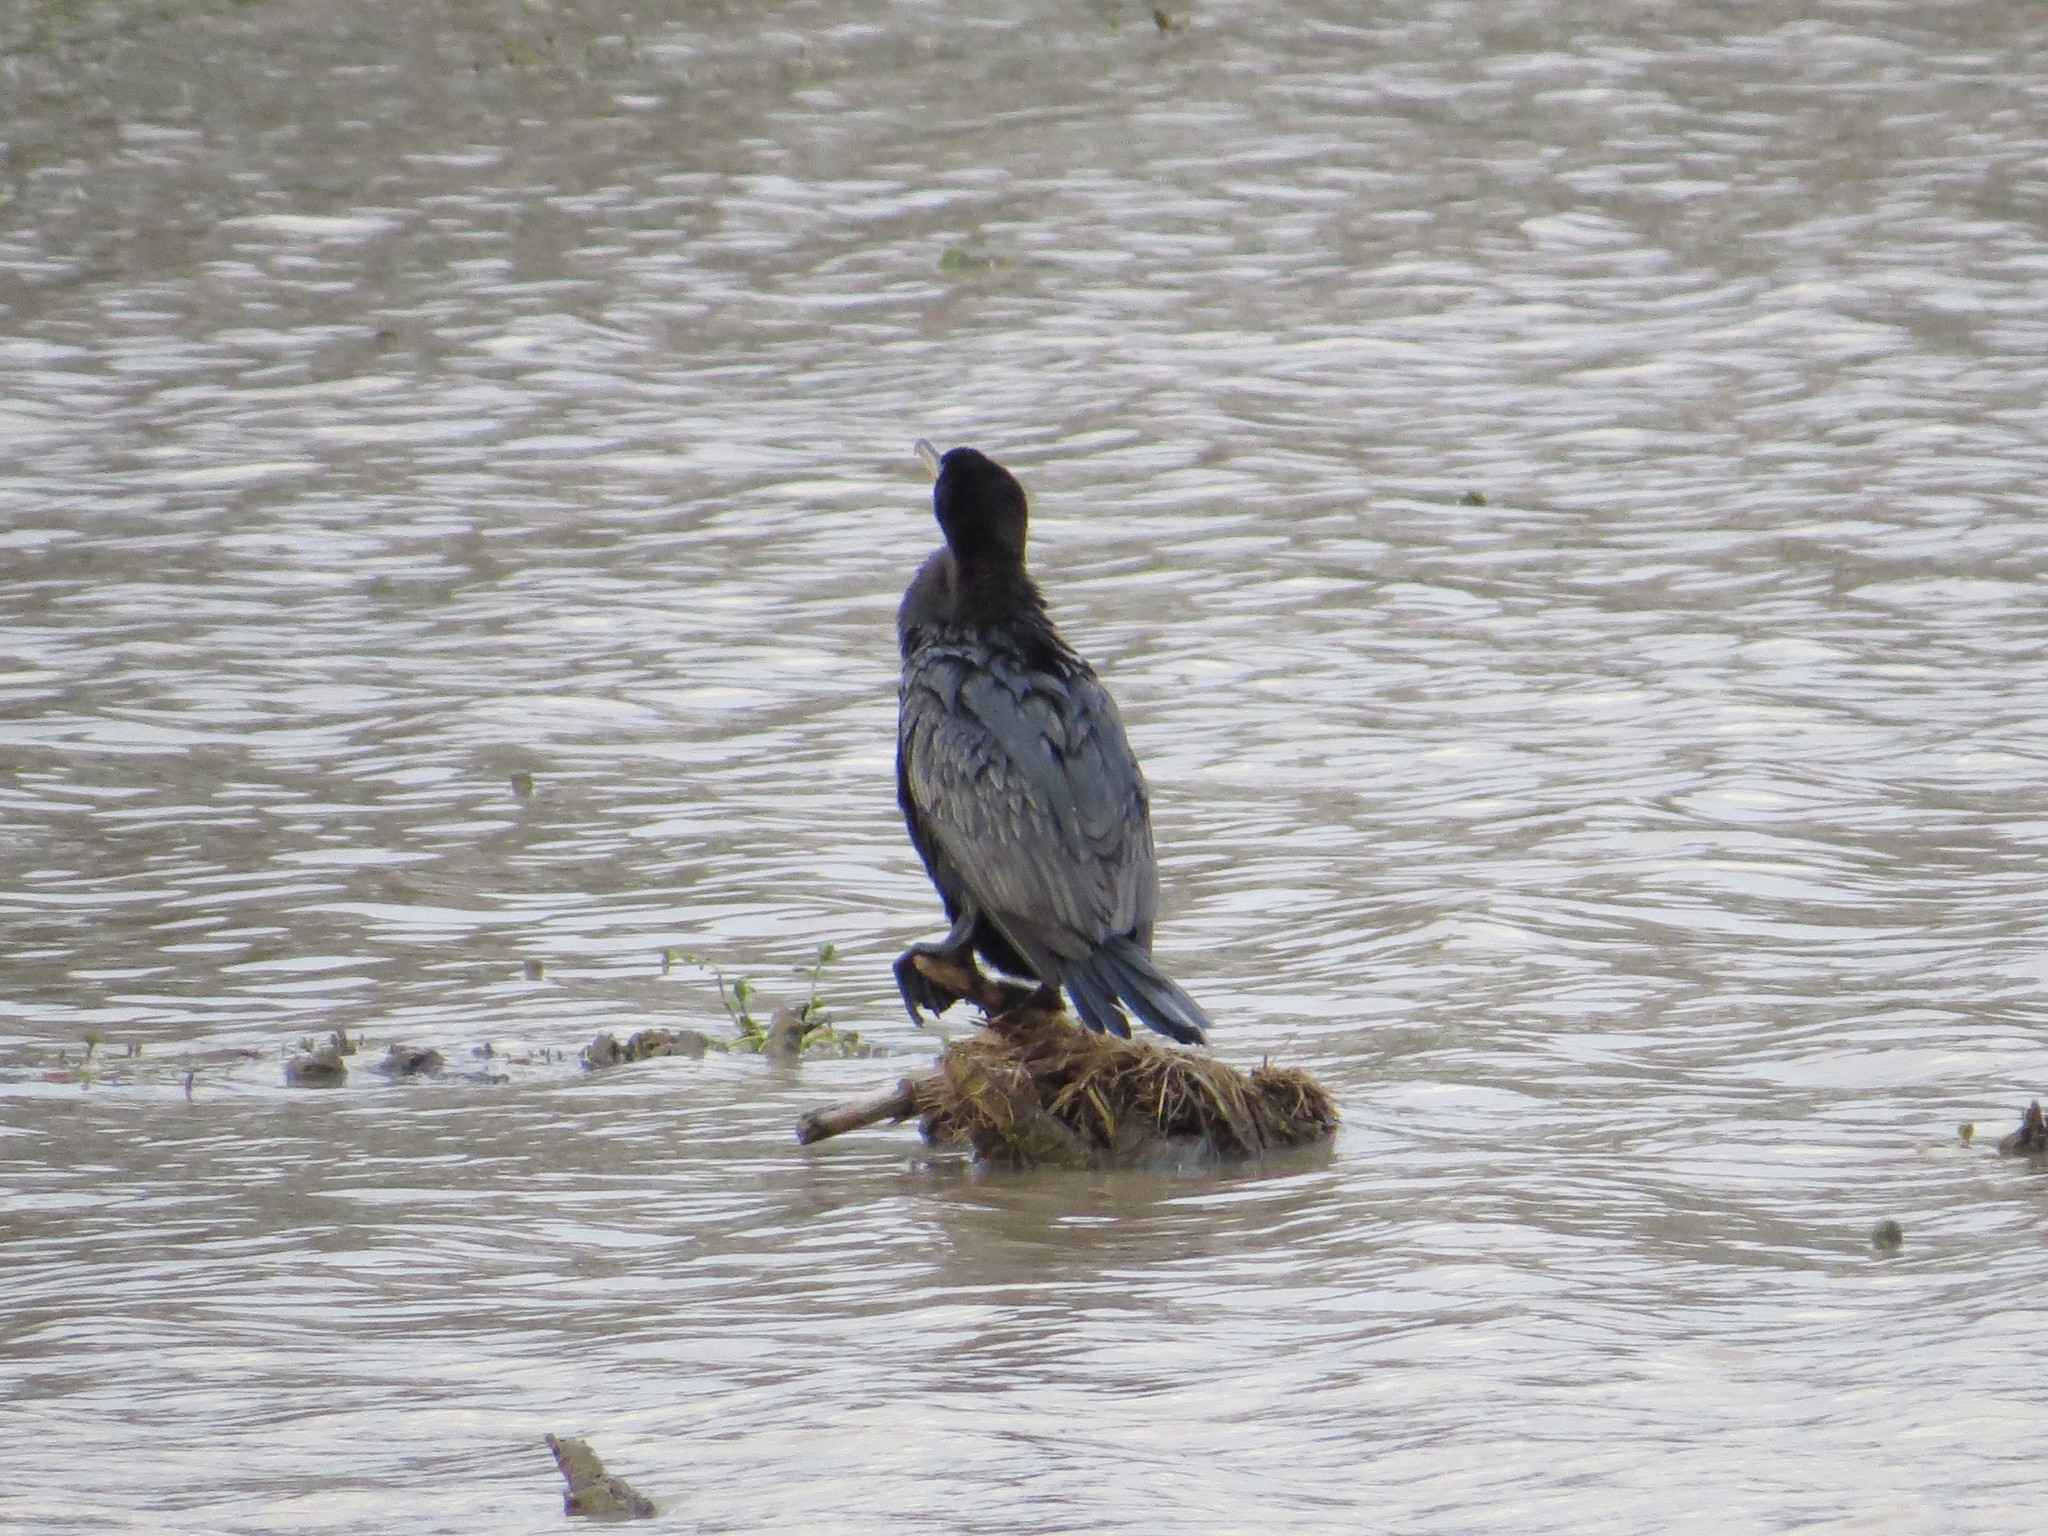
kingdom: Animalia
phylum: Chordata
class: Aves
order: Suliformes
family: Phalacrocoracidae
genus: Phalacrocorax
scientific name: Phalacrocorax brasilianus
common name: Neotropic cormorant
